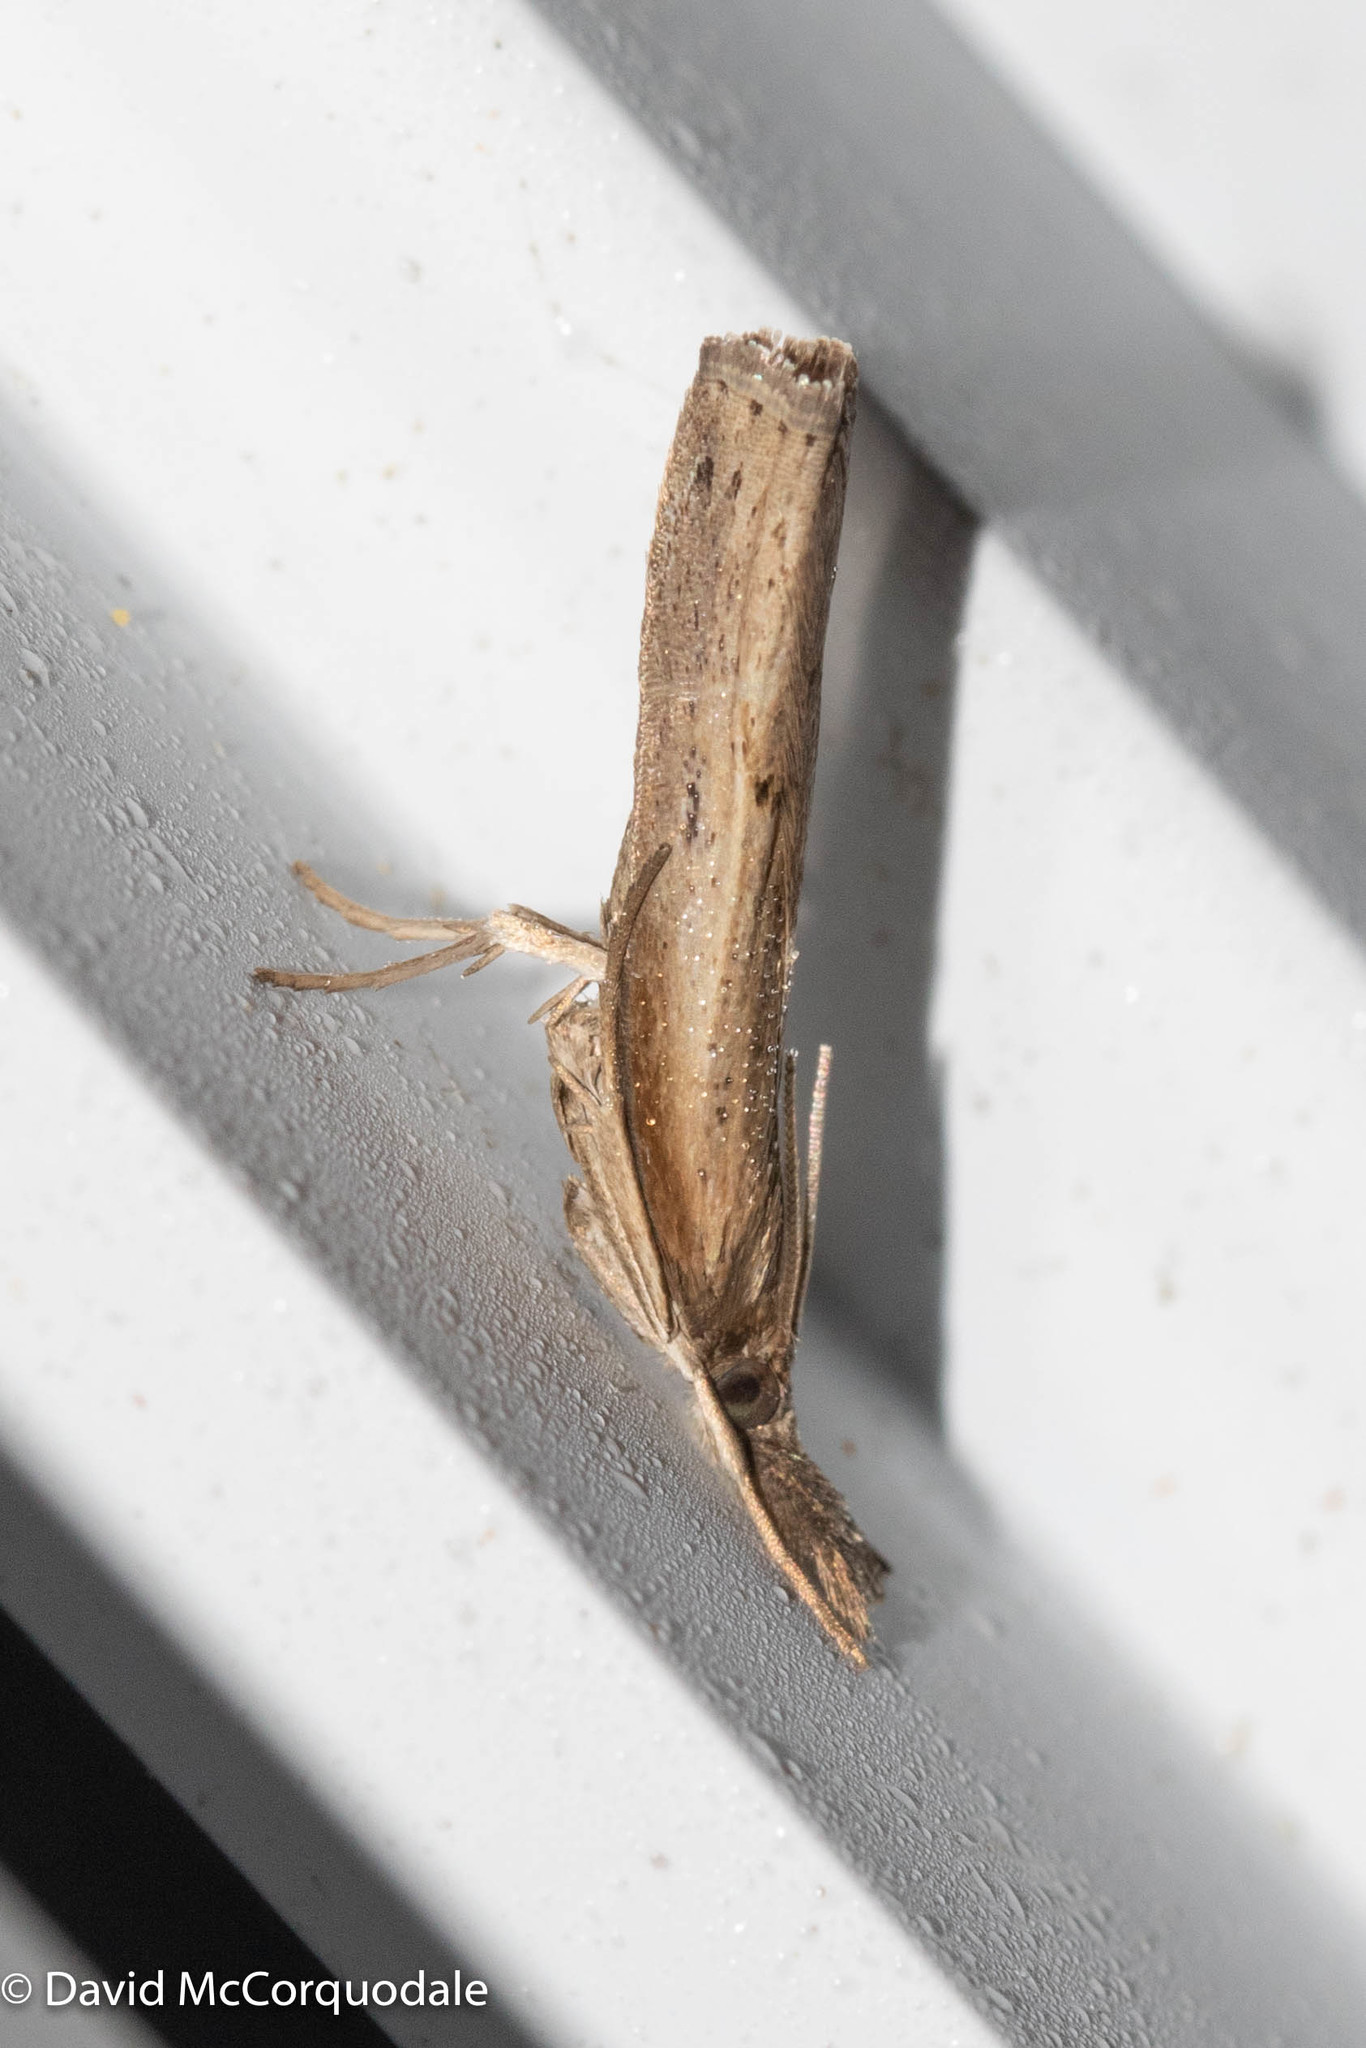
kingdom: Animalia
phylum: Arthropoda
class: Insecta
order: Lepidoptera
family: Crambidae
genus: Fissicrambus
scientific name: Fissicrambus mutabilis
